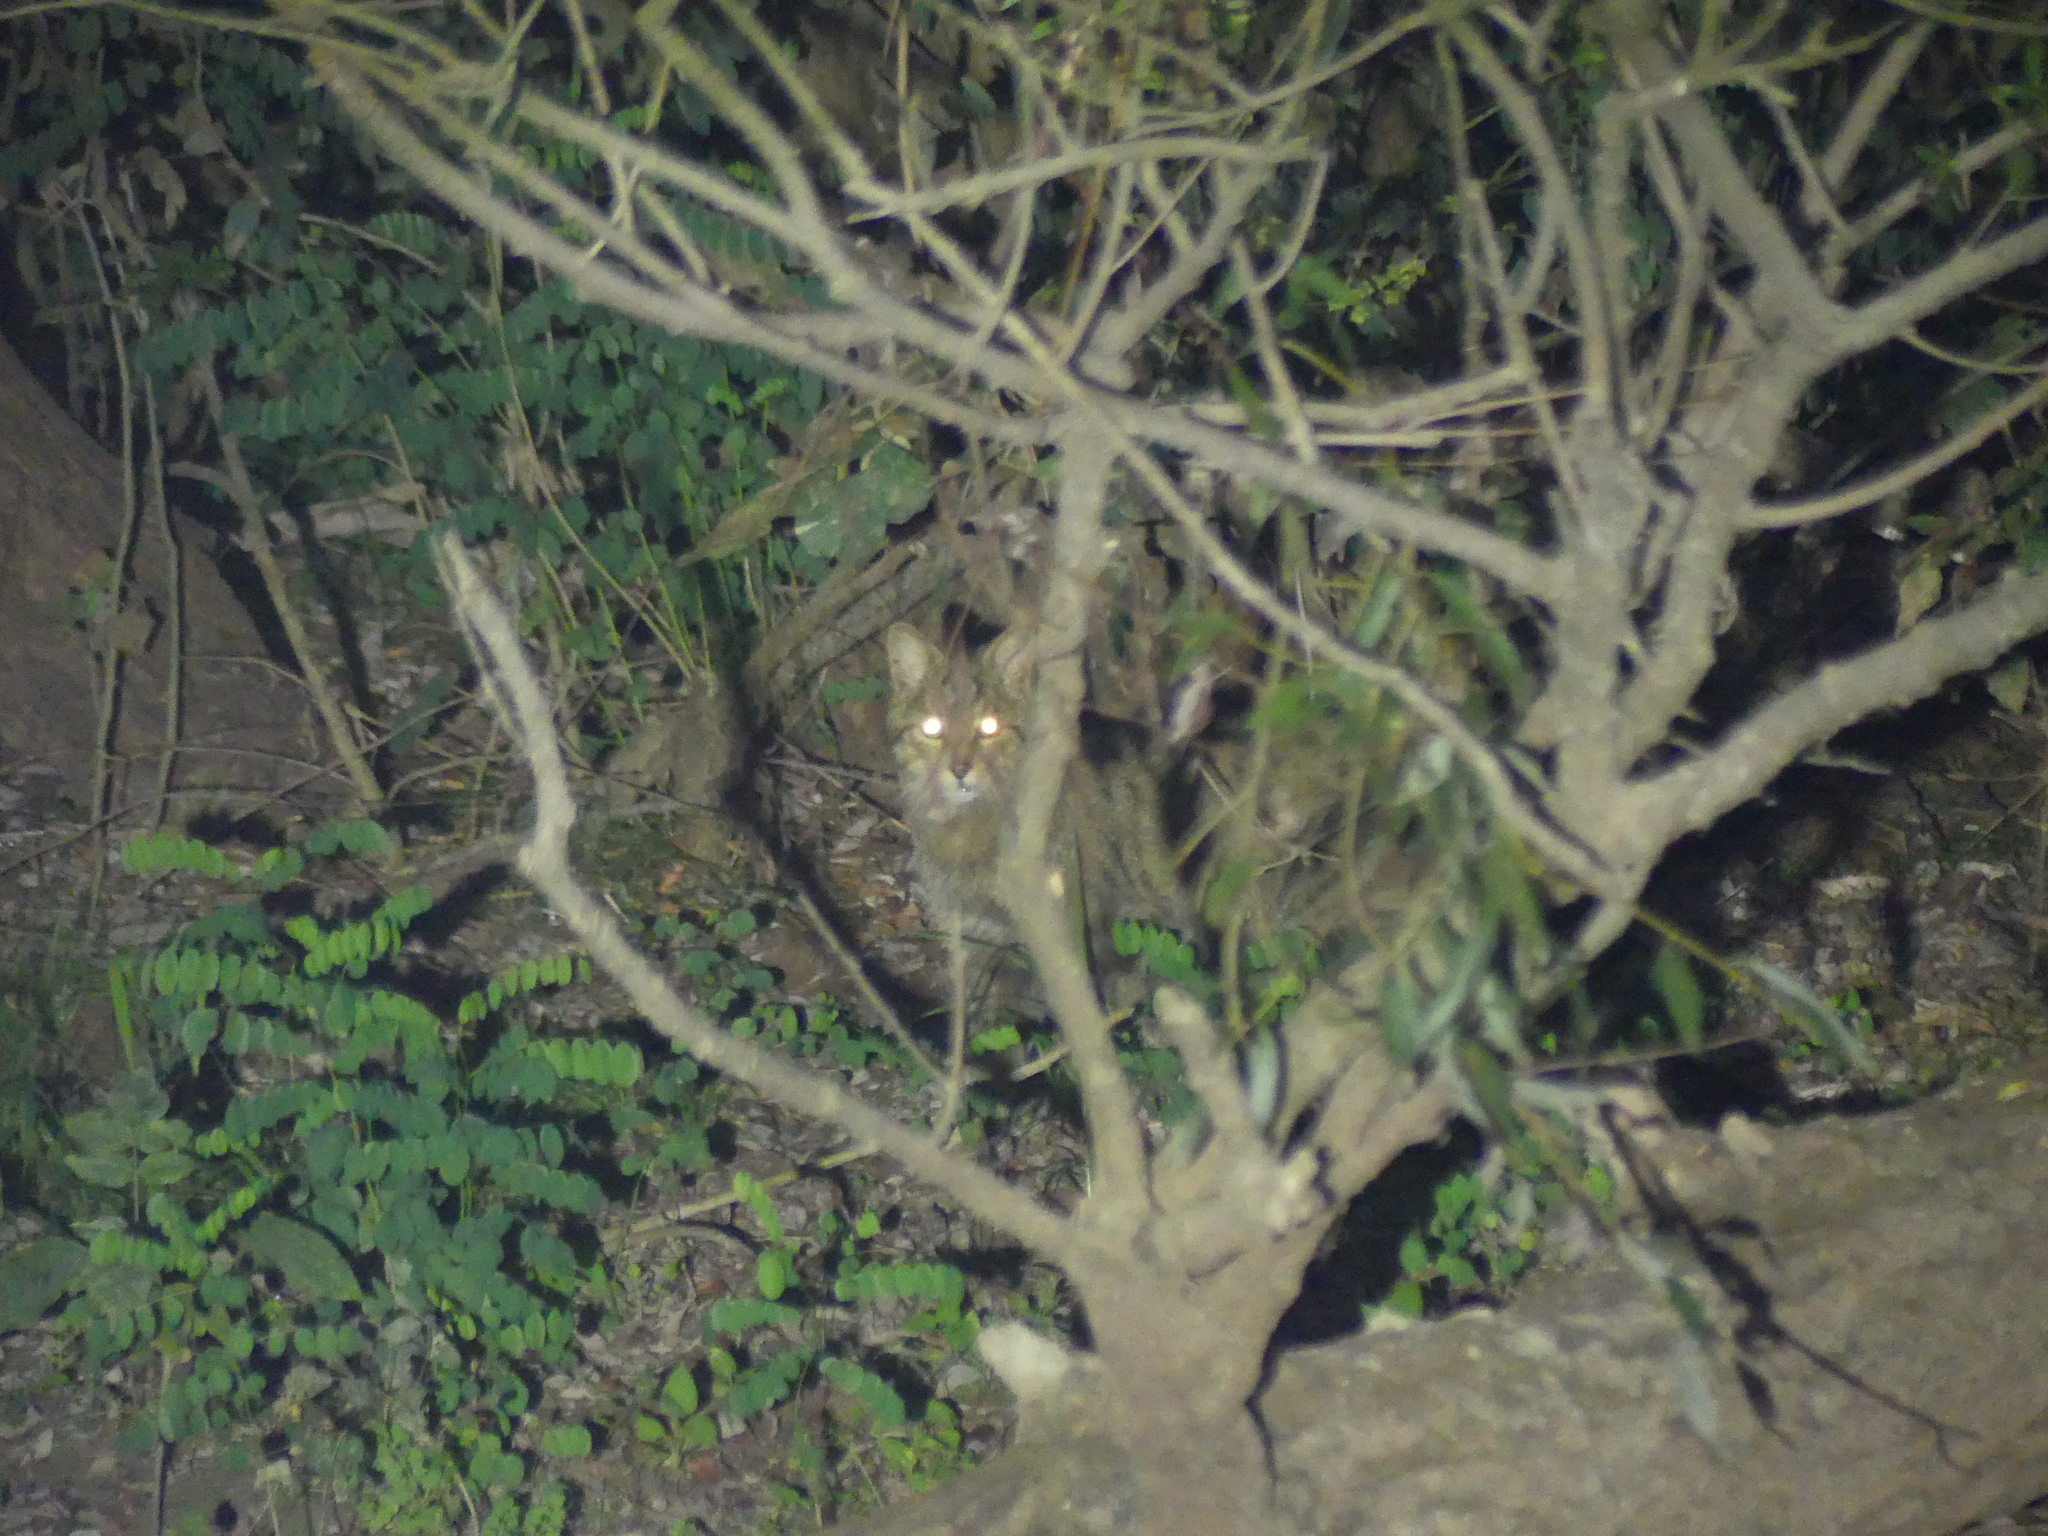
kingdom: Animalia
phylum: Chordata
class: Mammalia
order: Carnivora
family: Felidae
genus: Felis
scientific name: Felis silvestris
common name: Wildcat
